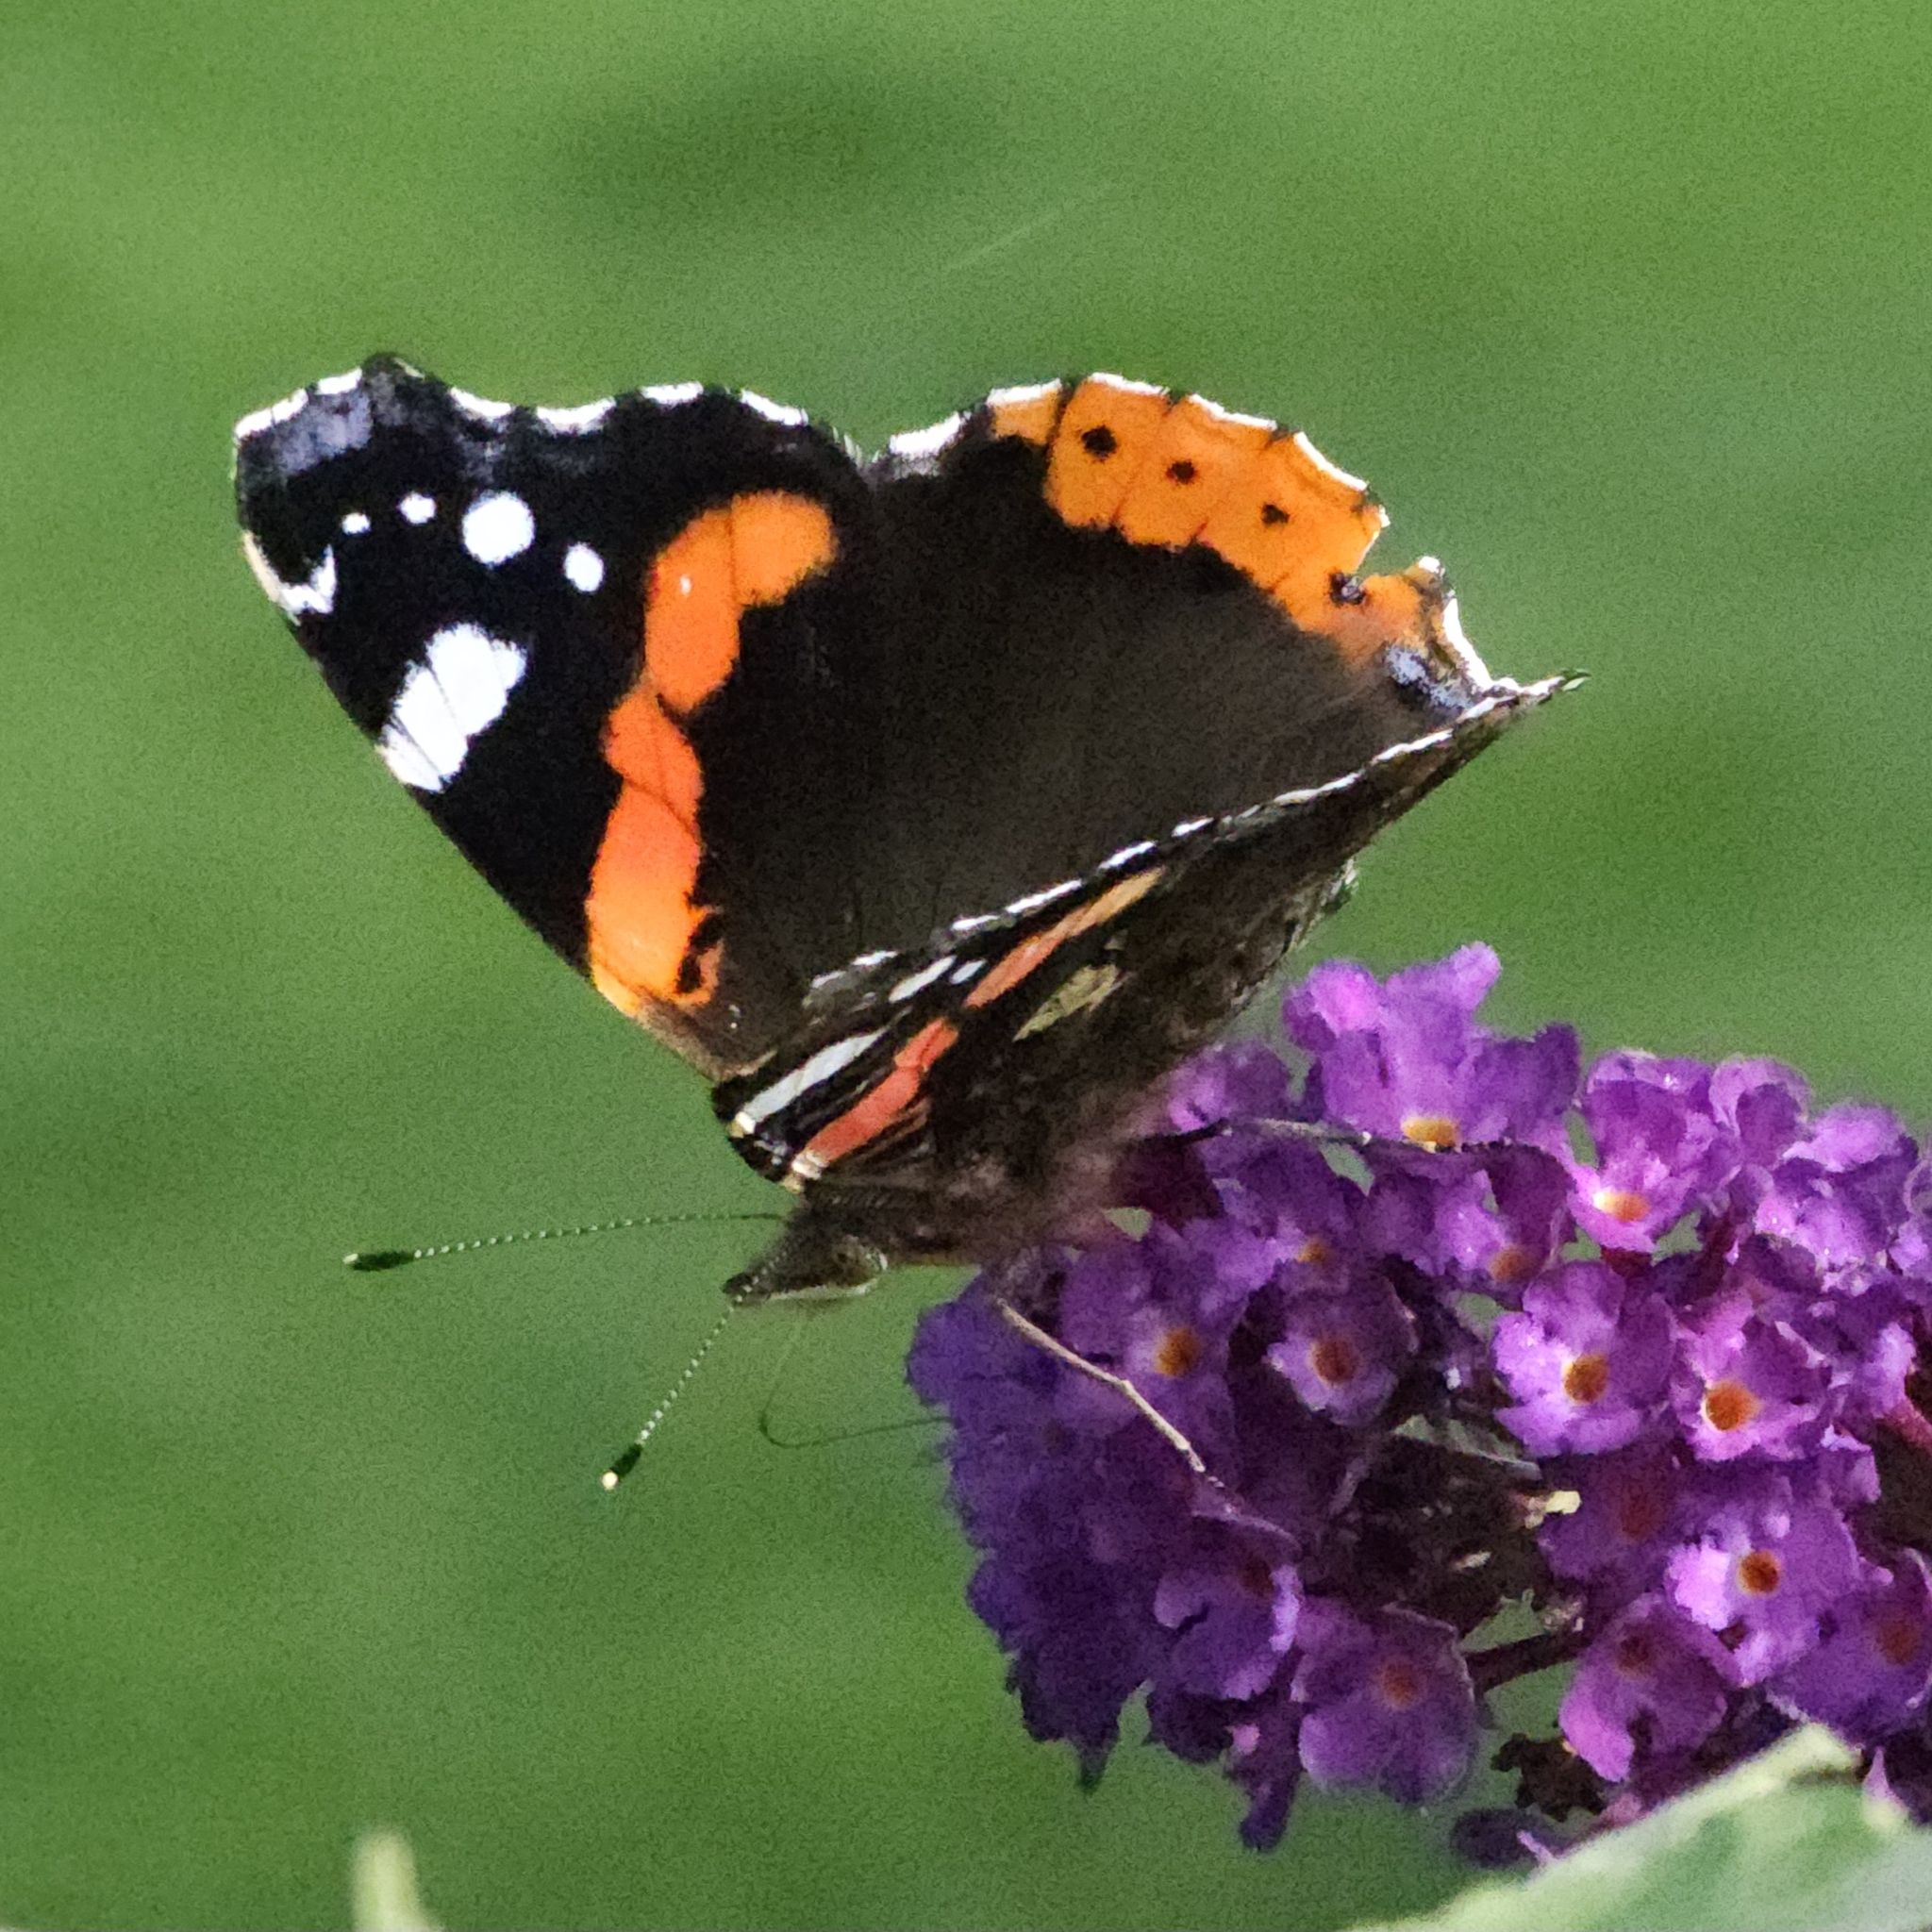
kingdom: Animalia
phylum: Arthropoda
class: Insecta
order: Lepidoptera
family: Nymphalidae
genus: Vanessa
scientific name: Vanessa atalanta
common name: Red admiral
